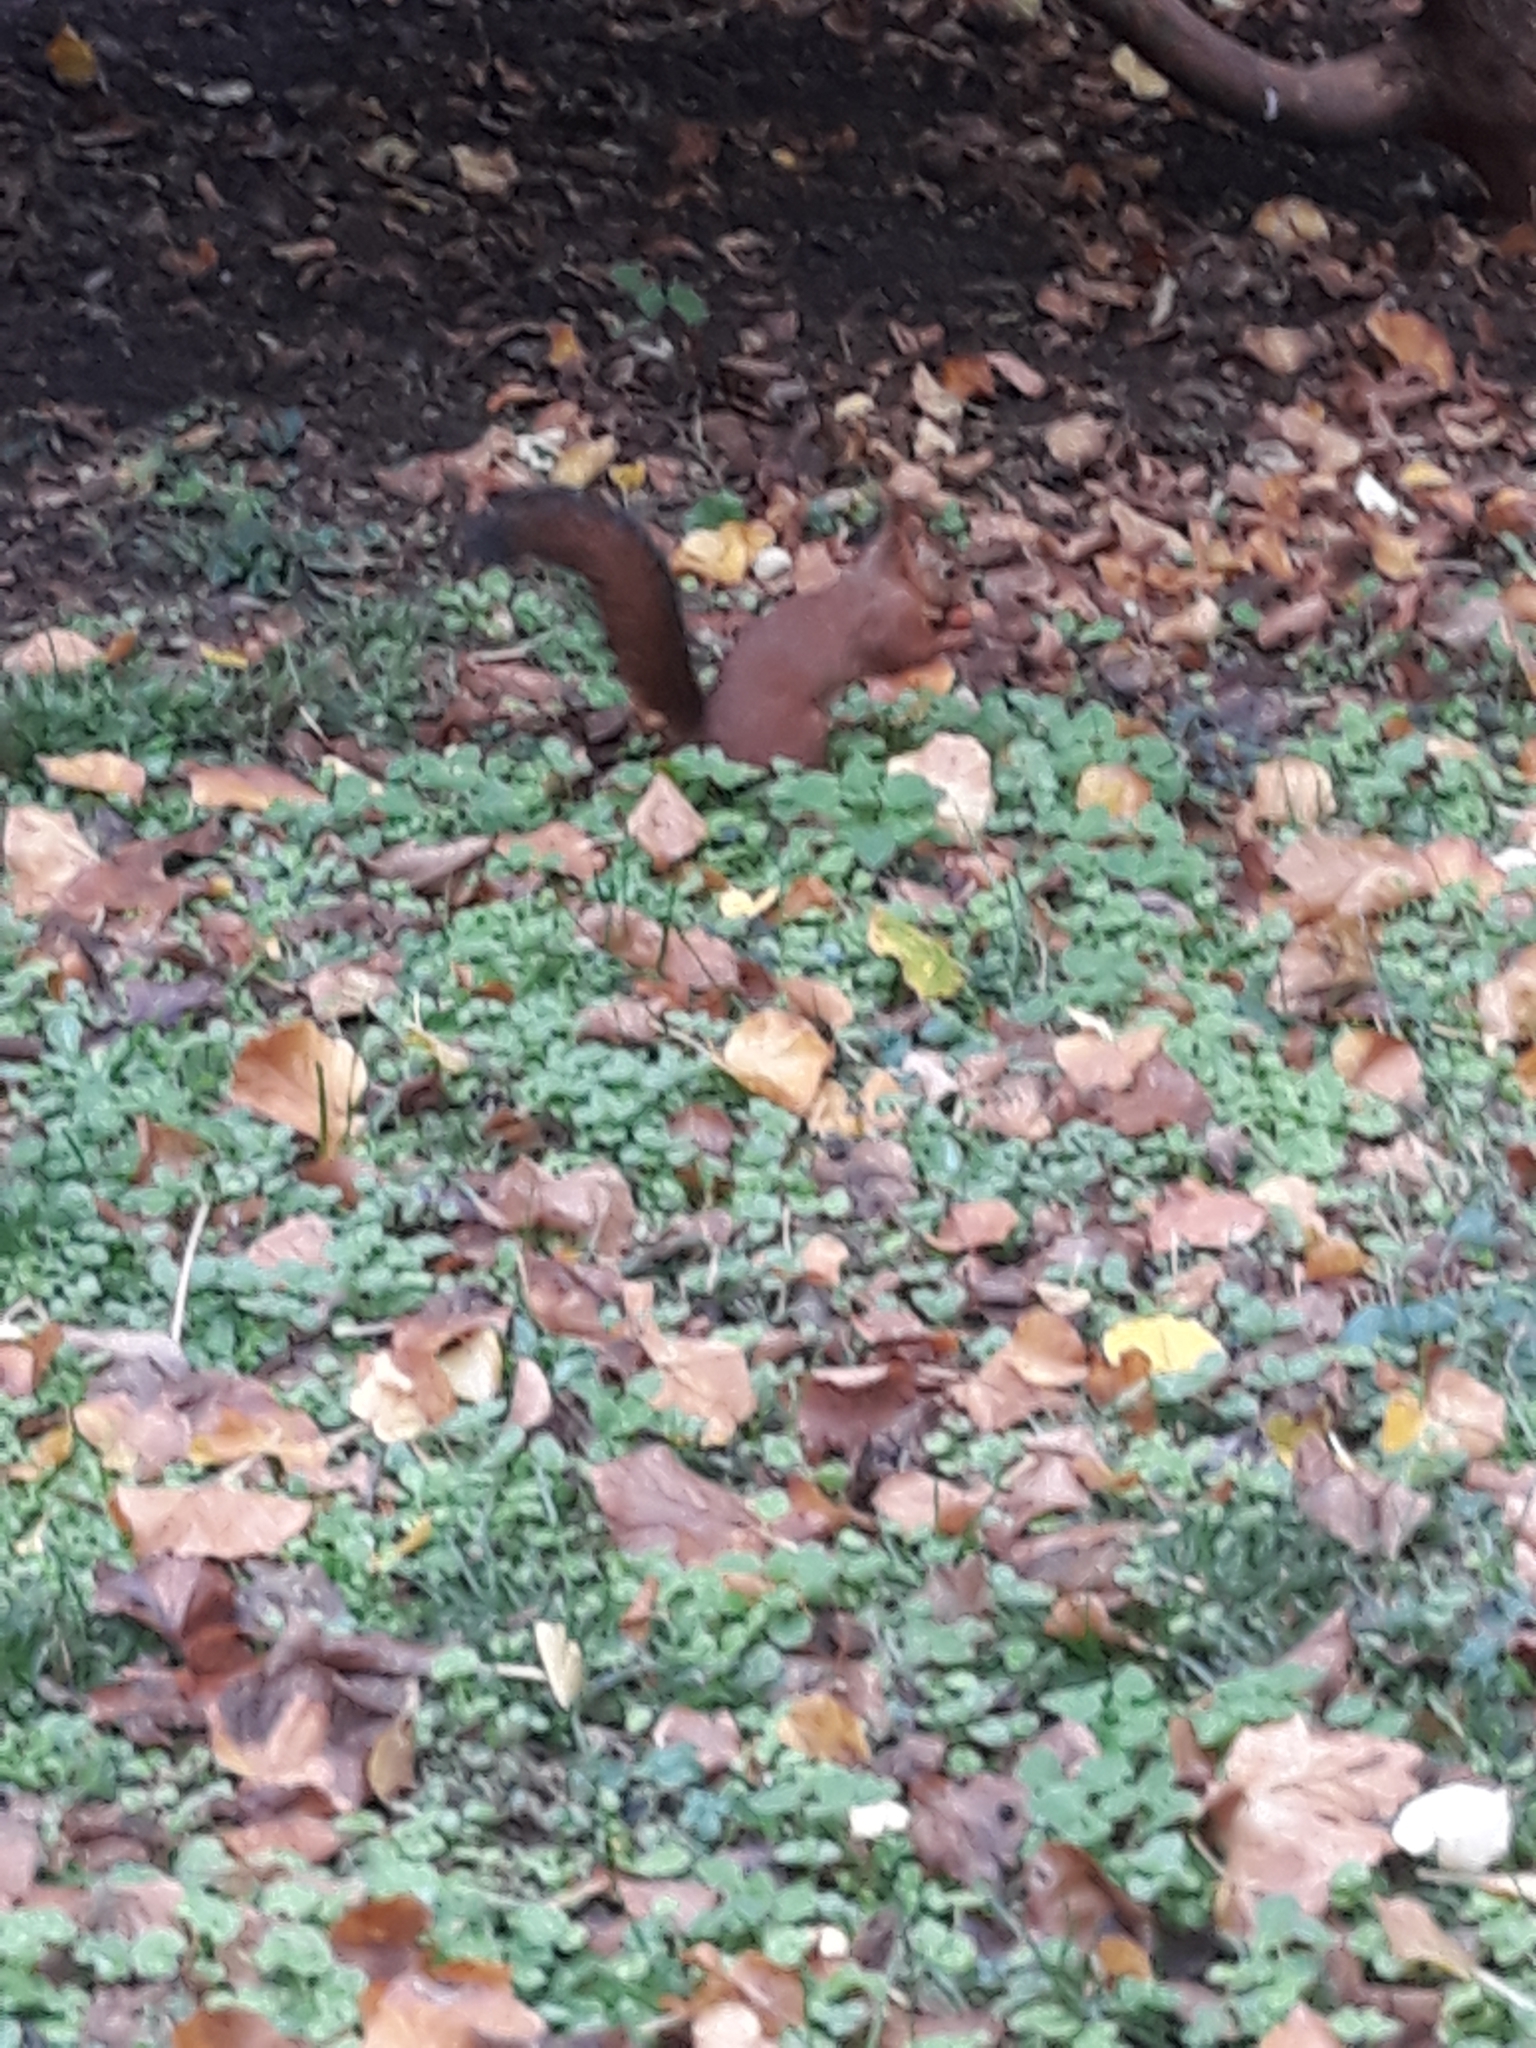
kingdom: Animalia
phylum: Chordata
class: Mammalia
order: Rodentia
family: Sciuridae
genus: Sciurus
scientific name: Sciurus vulgaris
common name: Eurasian red squirrel
